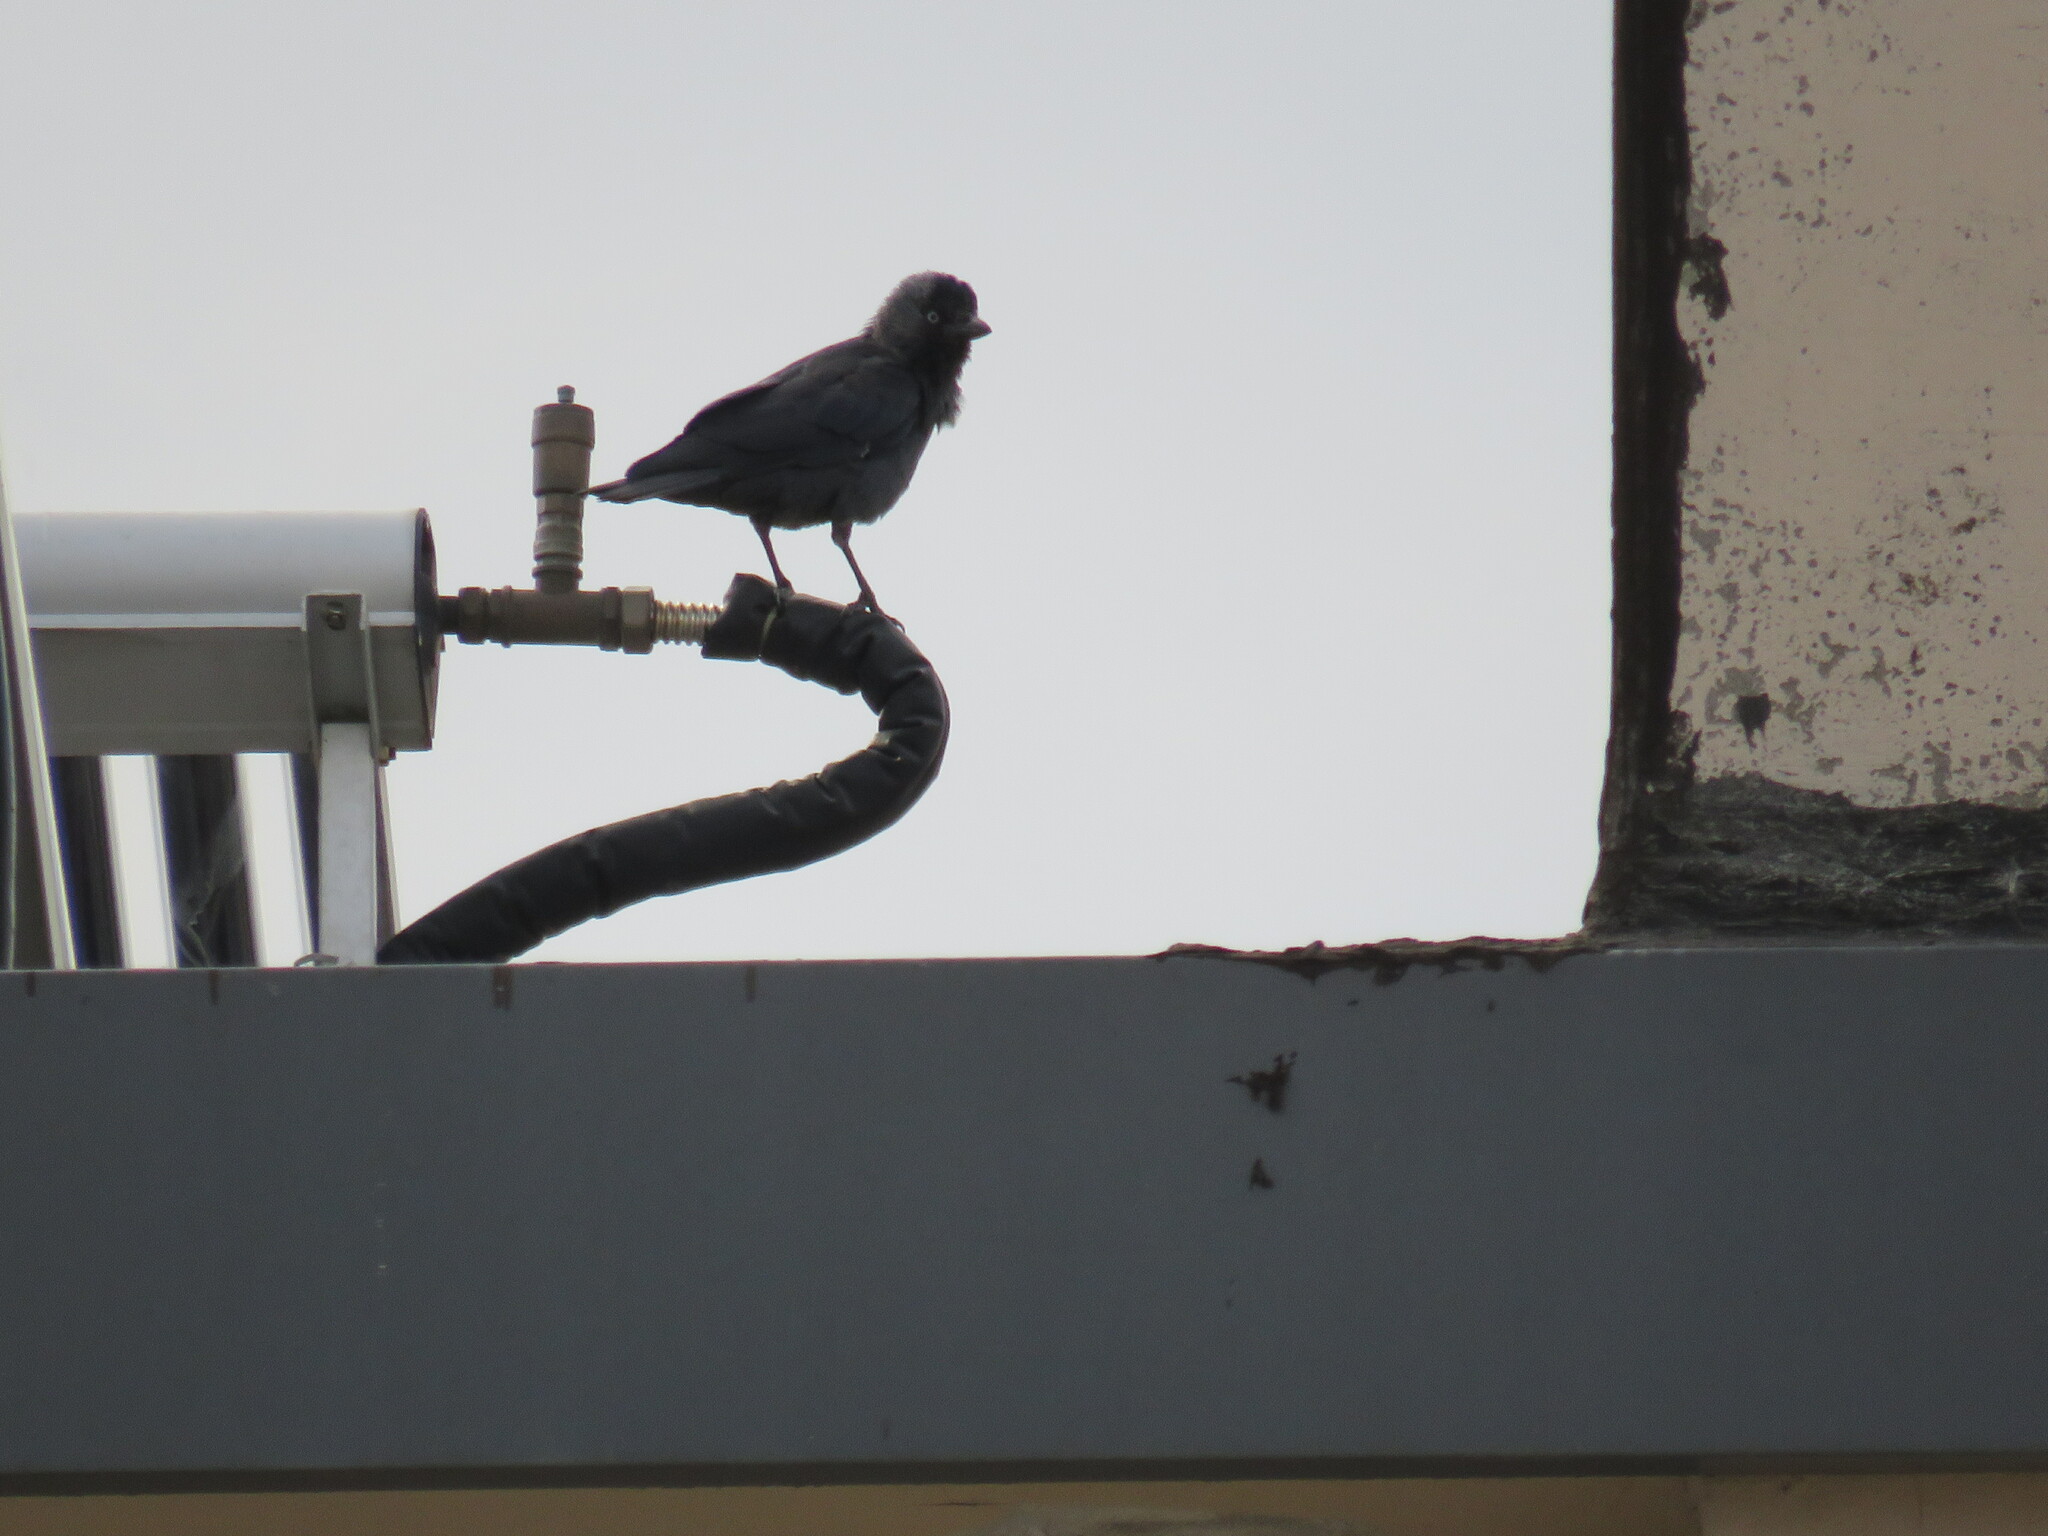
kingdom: Animalia
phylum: Chordata
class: Aves
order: Passeriformes
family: Corvidae
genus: Coloeus
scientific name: Coloeus monedula
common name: Western jackdaw
